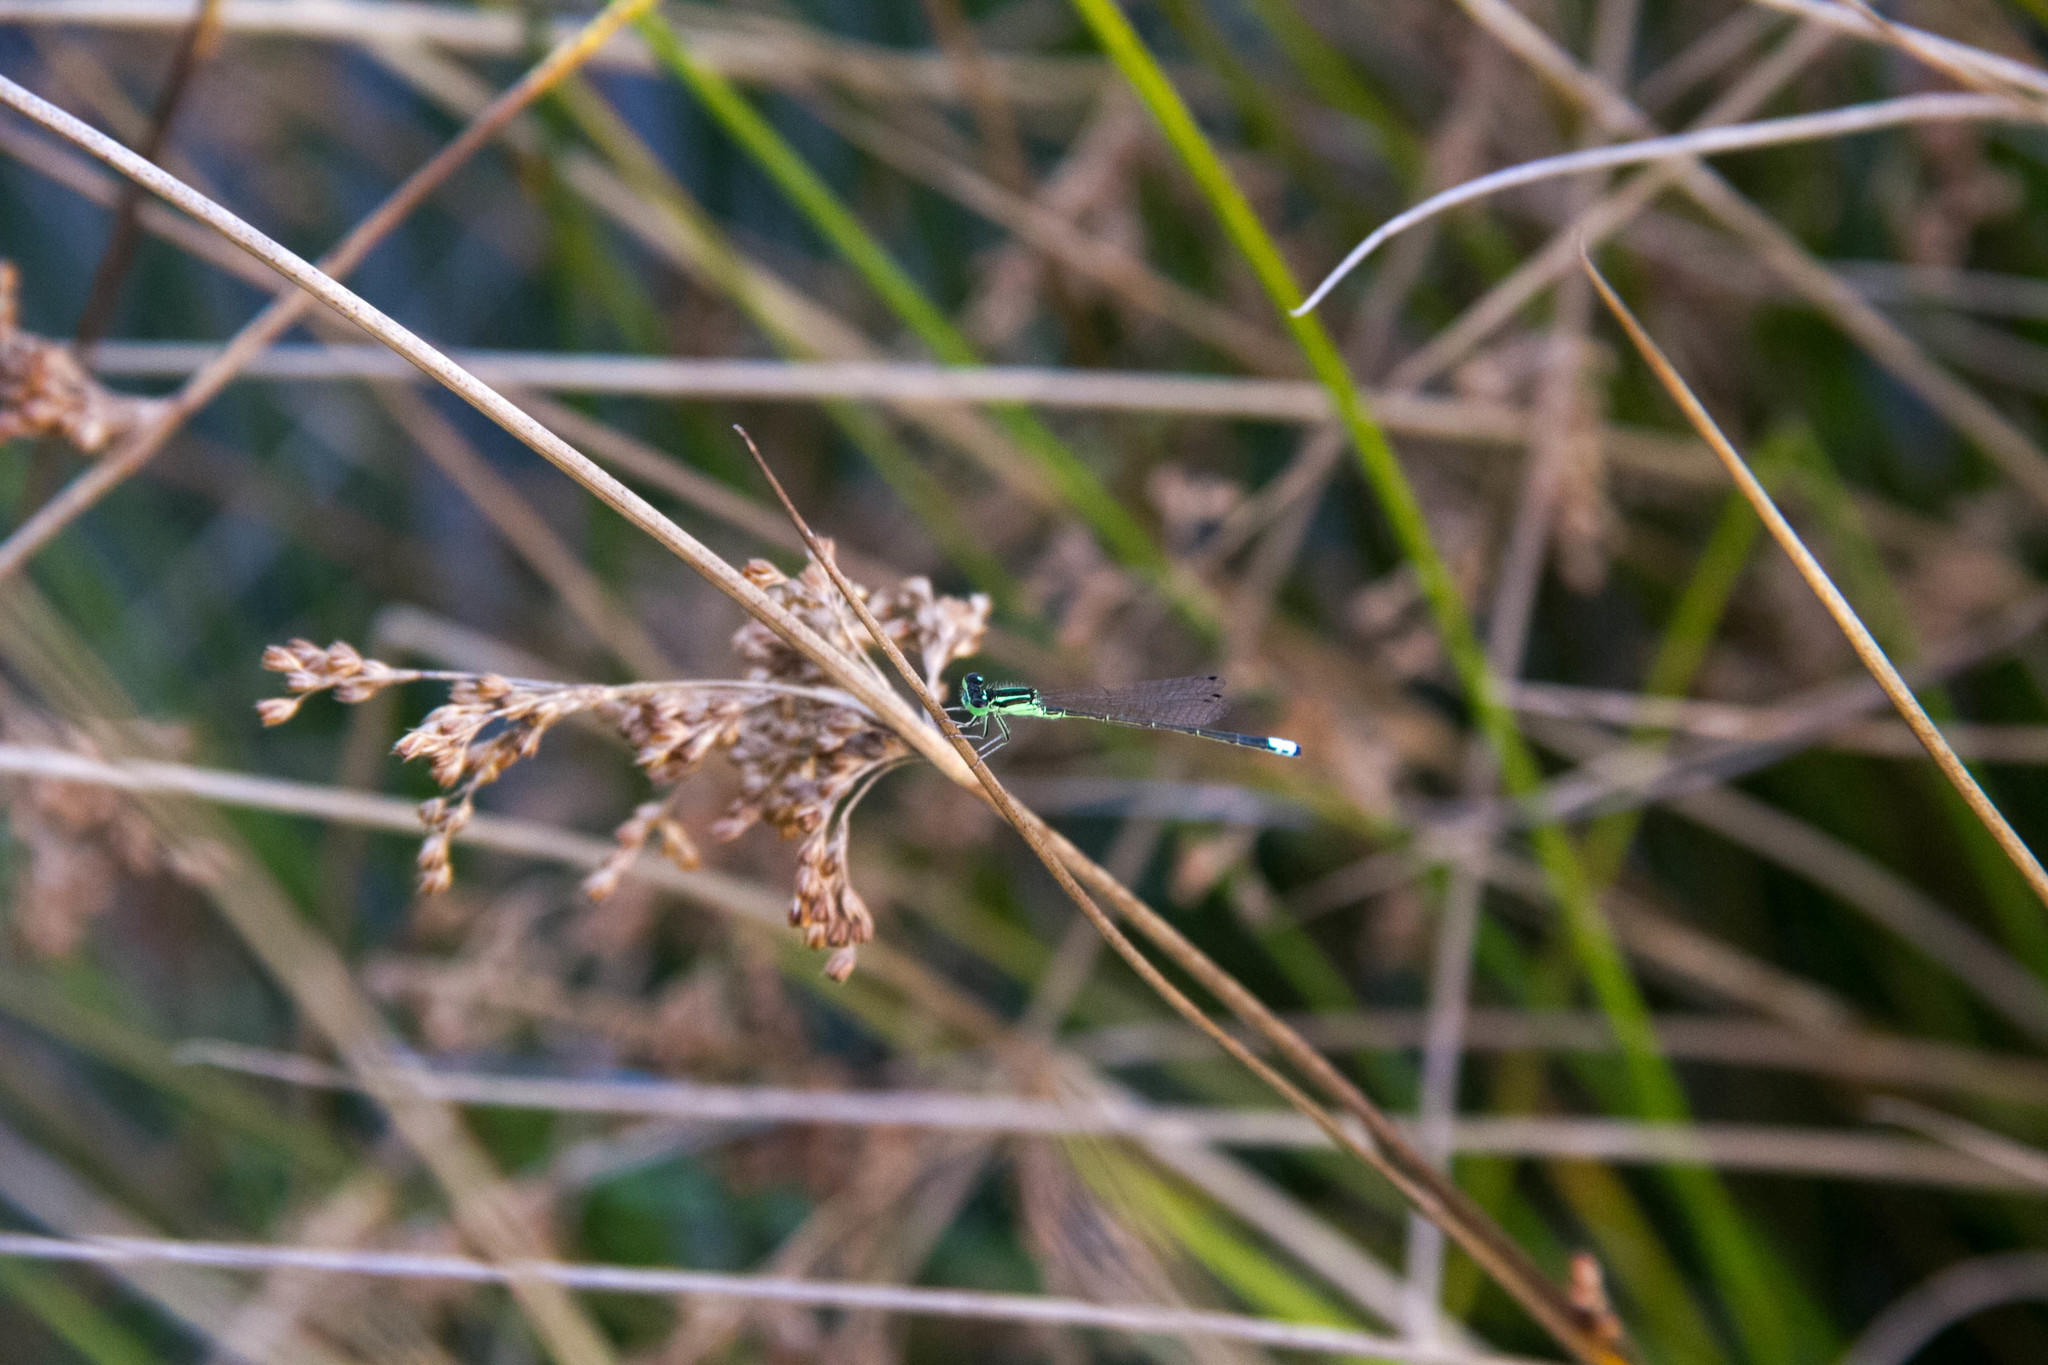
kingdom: Animalia
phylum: Arthropoda
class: Insecta
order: Odonata
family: Coenagrionidae
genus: Ischnura
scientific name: Ischnura verticalis
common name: Eastern forktail
